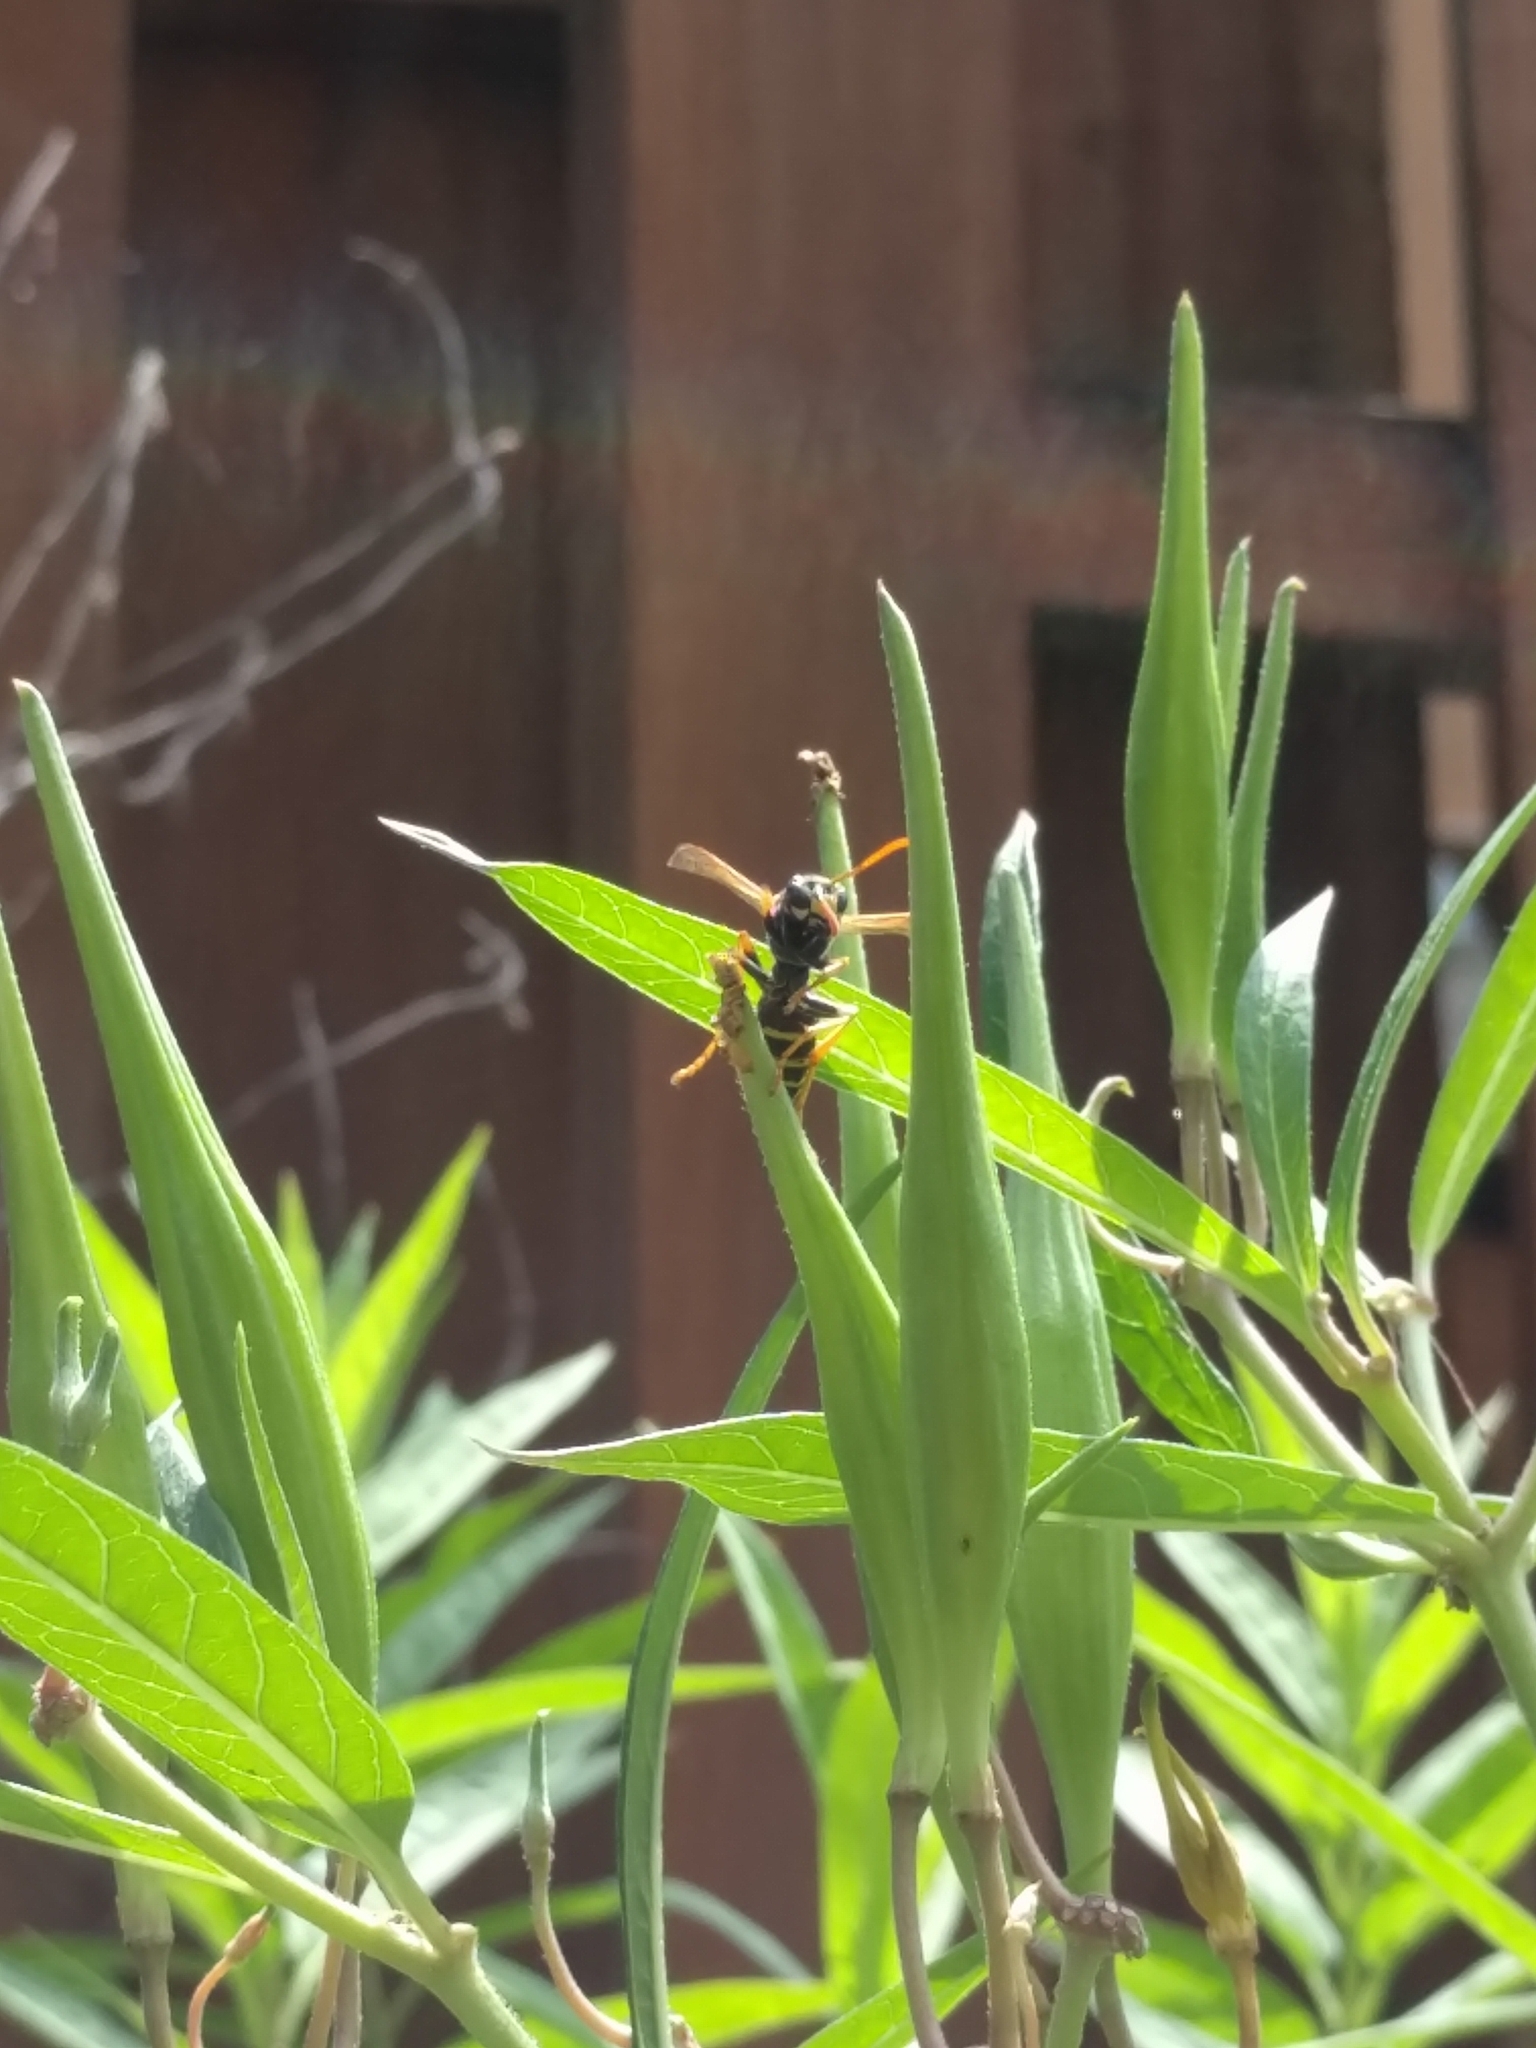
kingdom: Animalia
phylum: Arthropoda
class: Insecta
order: Hymenoptera
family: Eumenidae
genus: Polistes
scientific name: Polistes dominula
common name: Paper wasp
